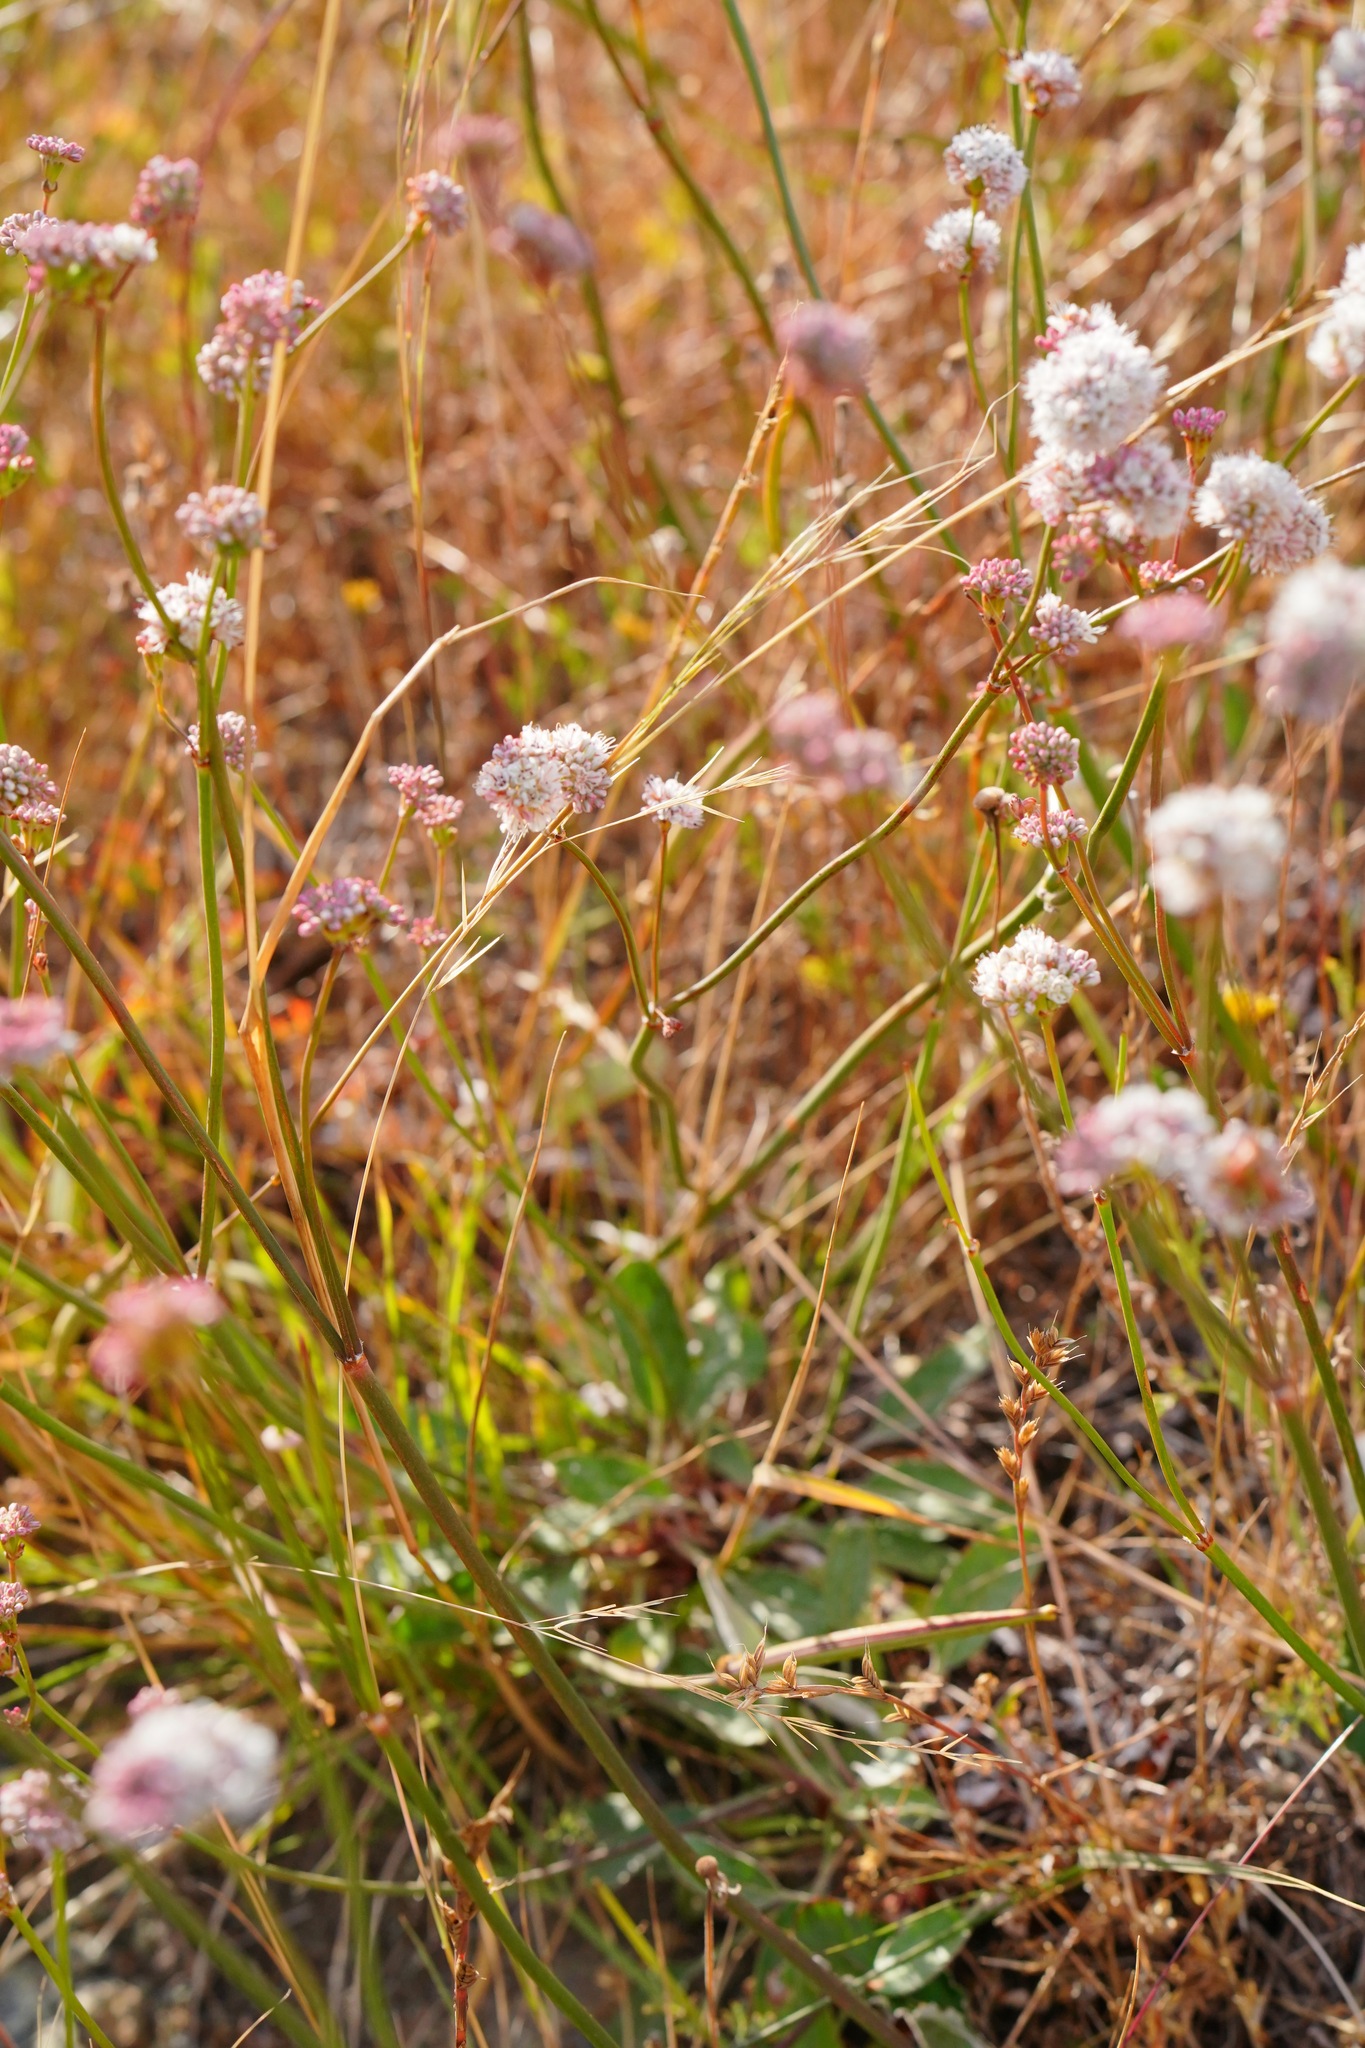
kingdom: Plantae
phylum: Tracheophyta
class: Magnoliopsida
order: Caryophyllales
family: Polygonaceae
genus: Eriogonum
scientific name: Eriogonum nudum
